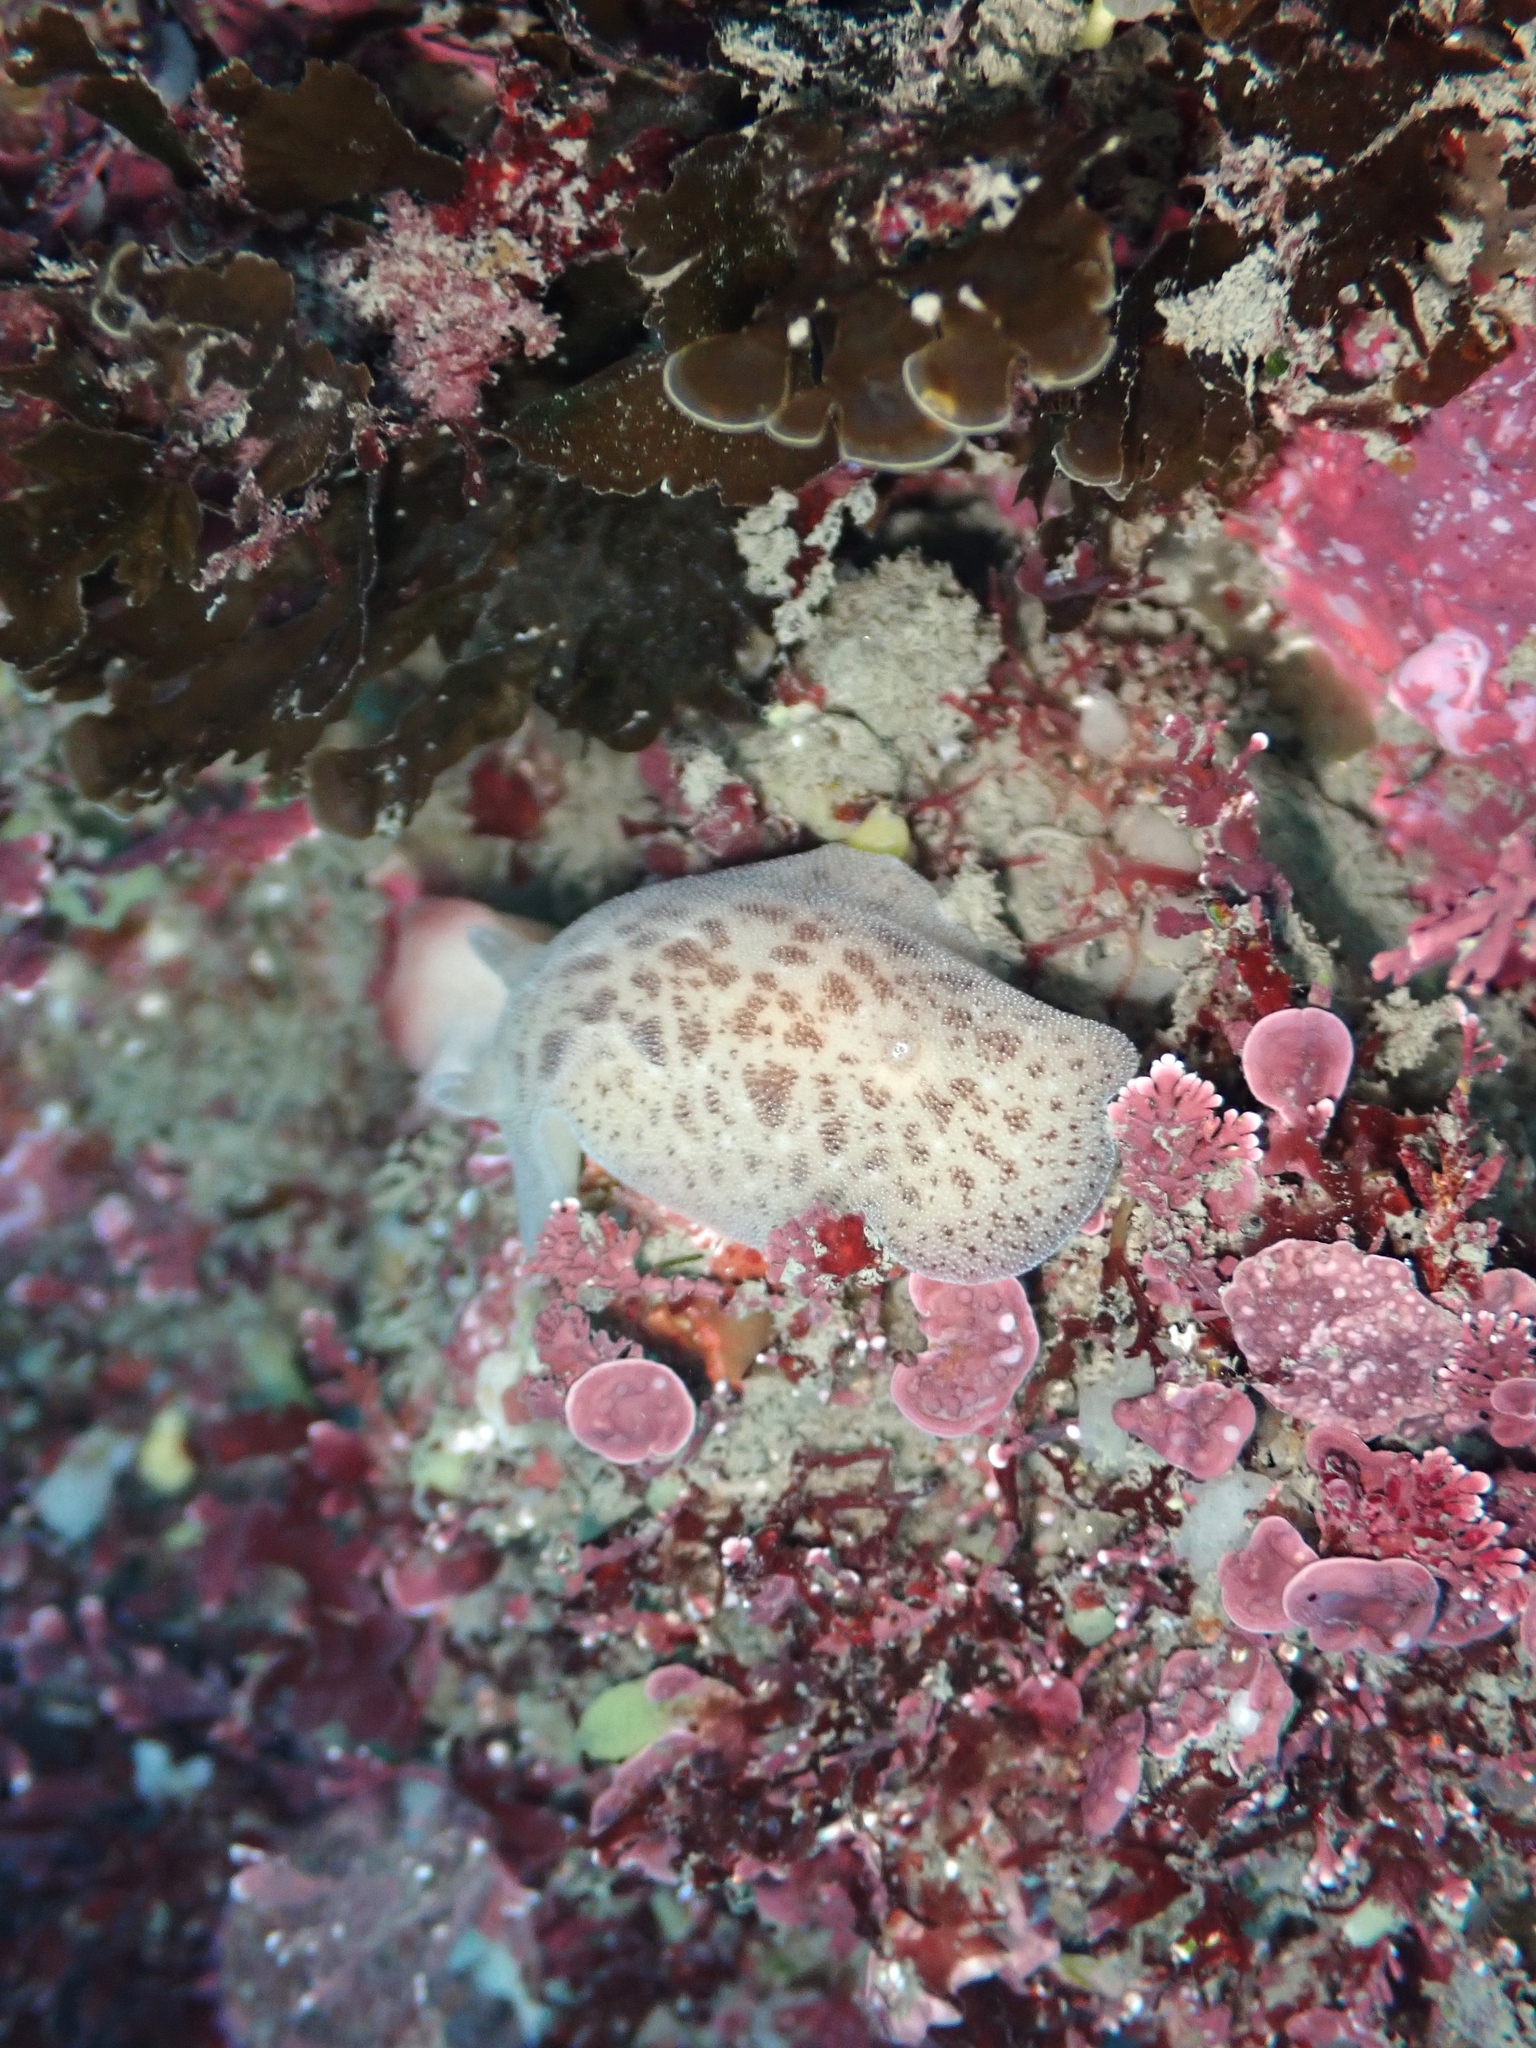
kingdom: Animalia
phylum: Mollusca
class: Gastropoda
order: Nudibranchia
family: Discodorididae
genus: Alloiodoris
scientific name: Alloiodoris lanuginata
